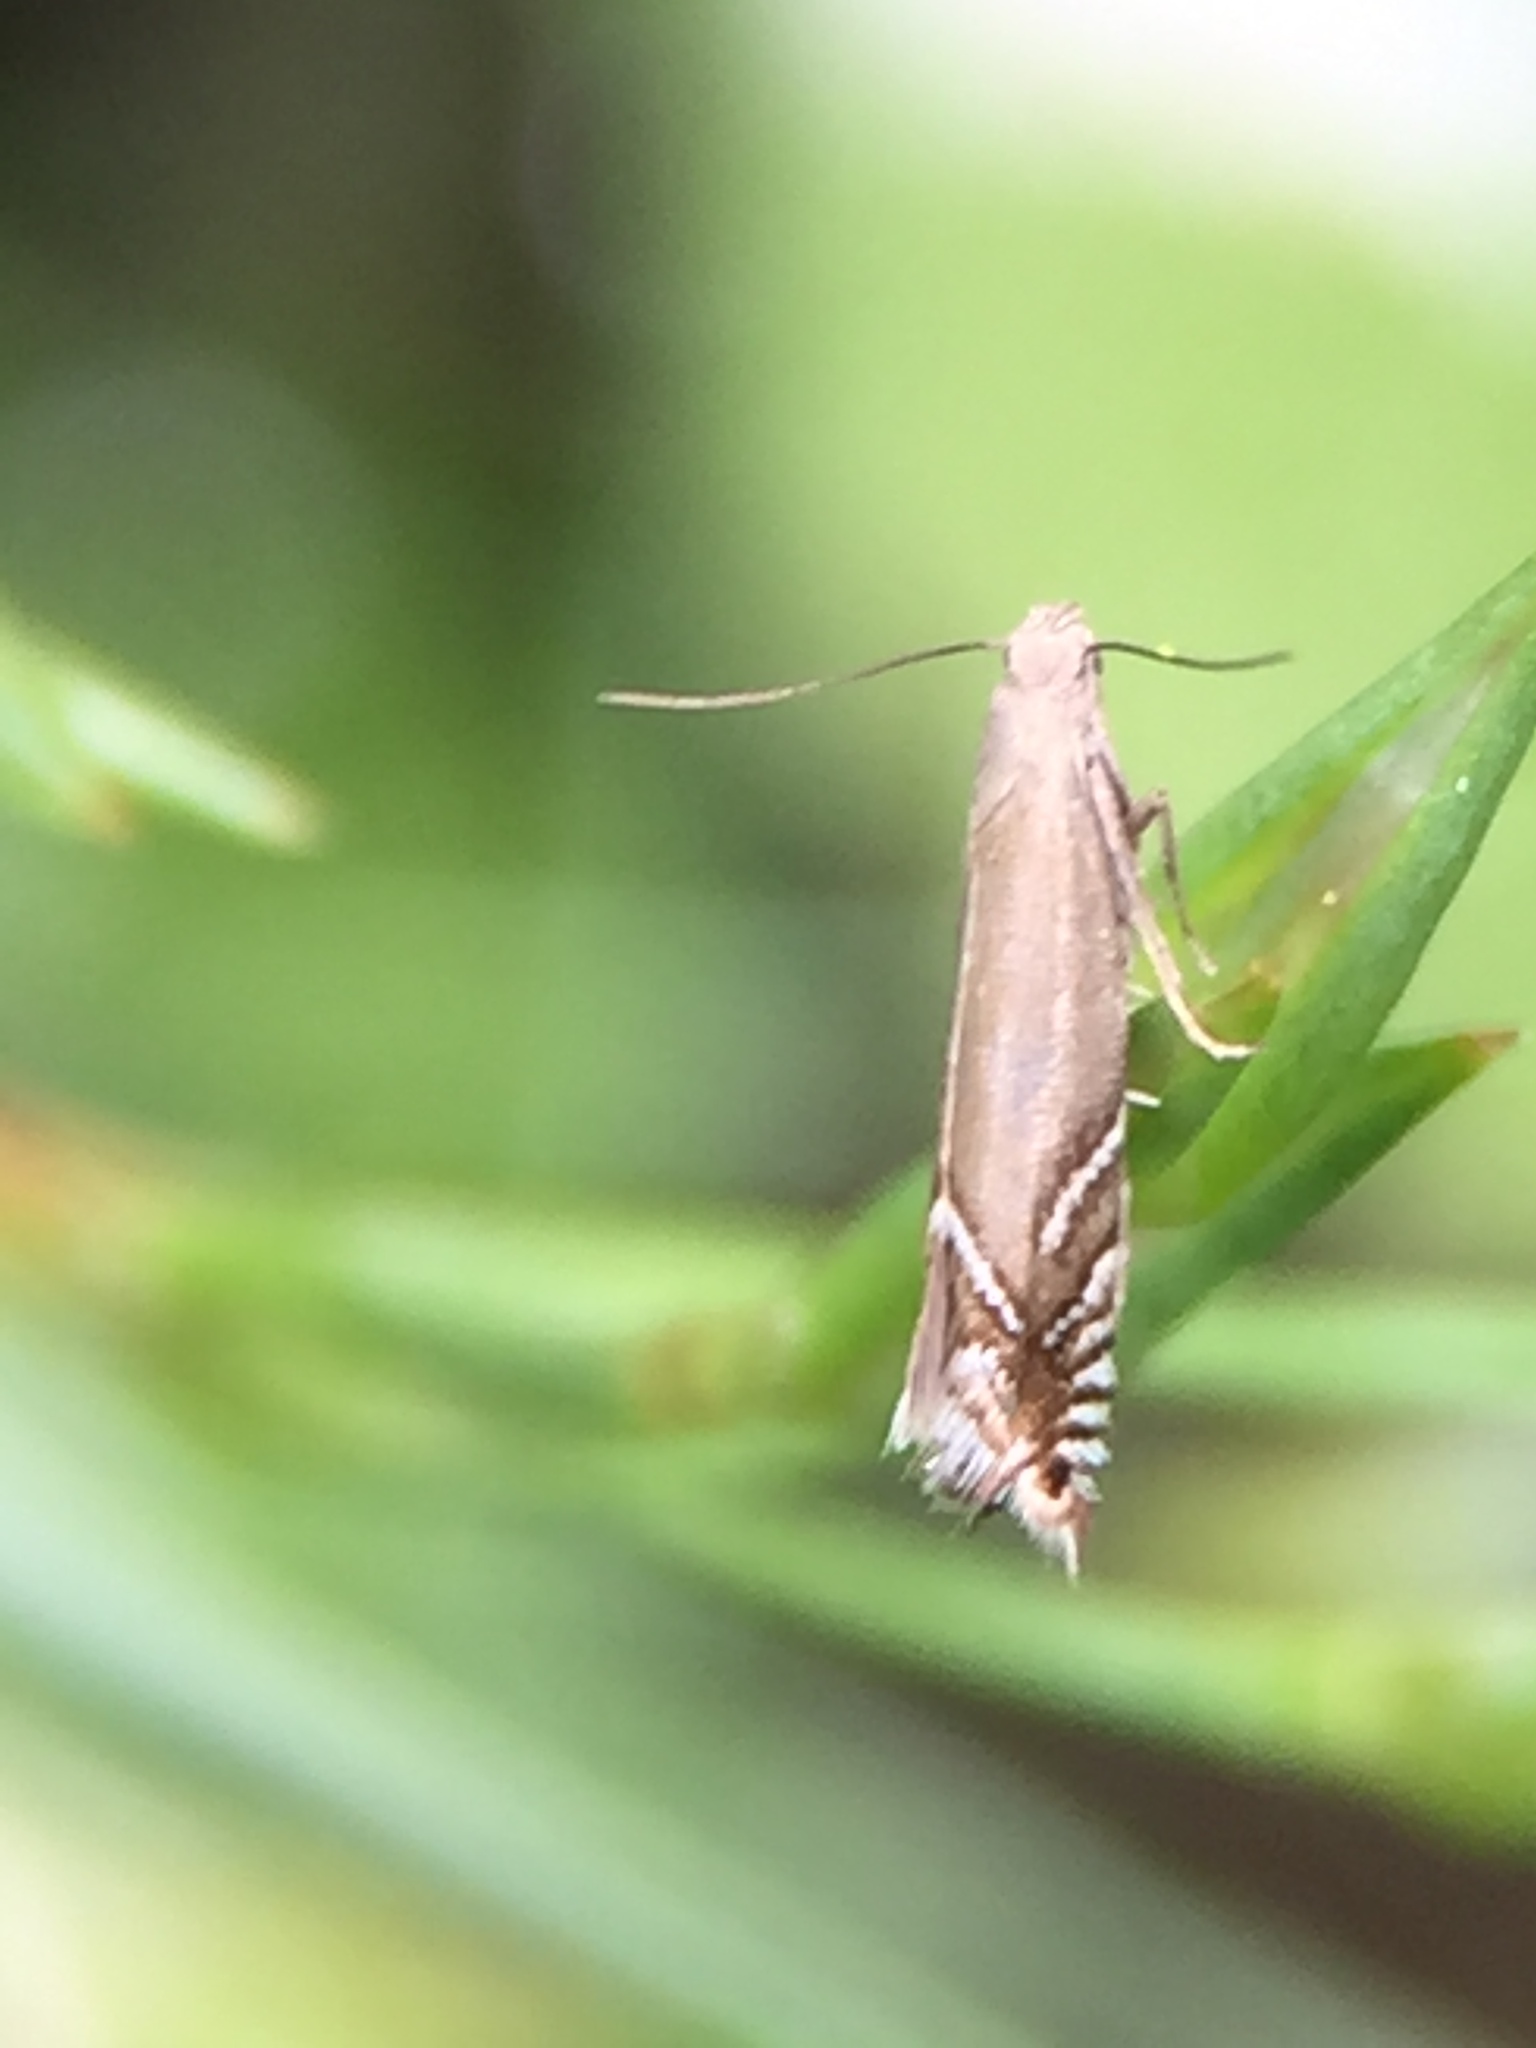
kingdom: Animalia
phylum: Arthropoda
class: Insecta
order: Lepidoptera
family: Glyphipterigidae
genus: Glyphipterix
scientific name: Glyphipterix iocheaera
